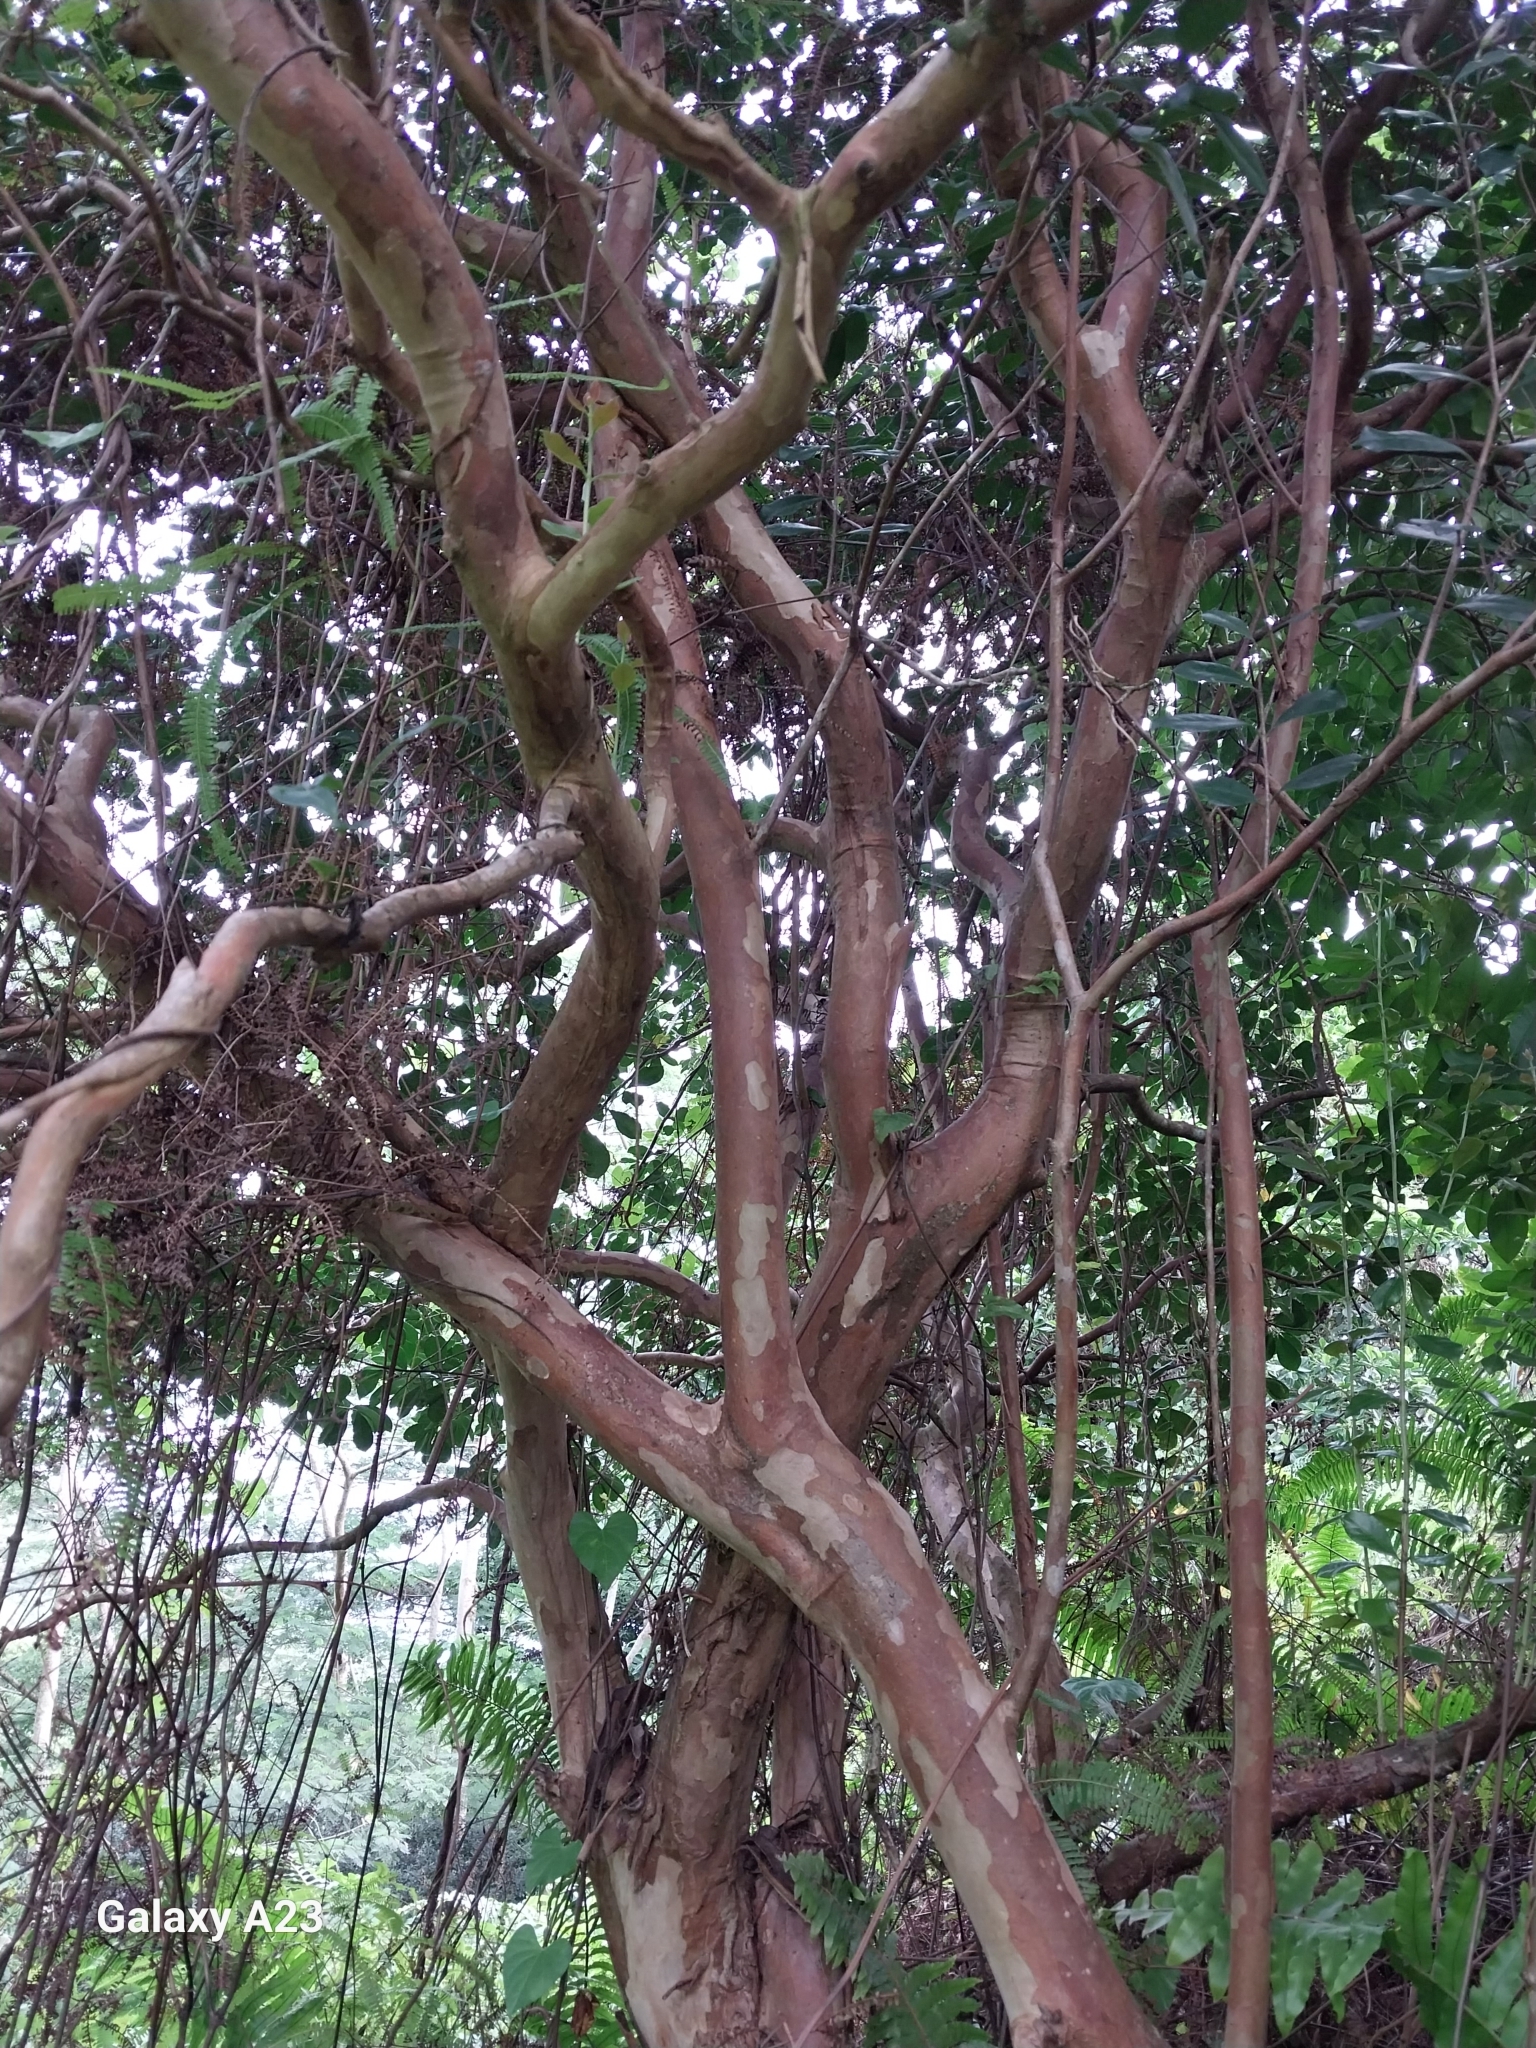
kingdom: Plantae
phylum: Tracheophyta
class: Magnoliopsida
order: Myrtales
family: Myrtaceae
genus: Psidium
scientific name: Psidium cattleianum
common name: Strawberry guava
